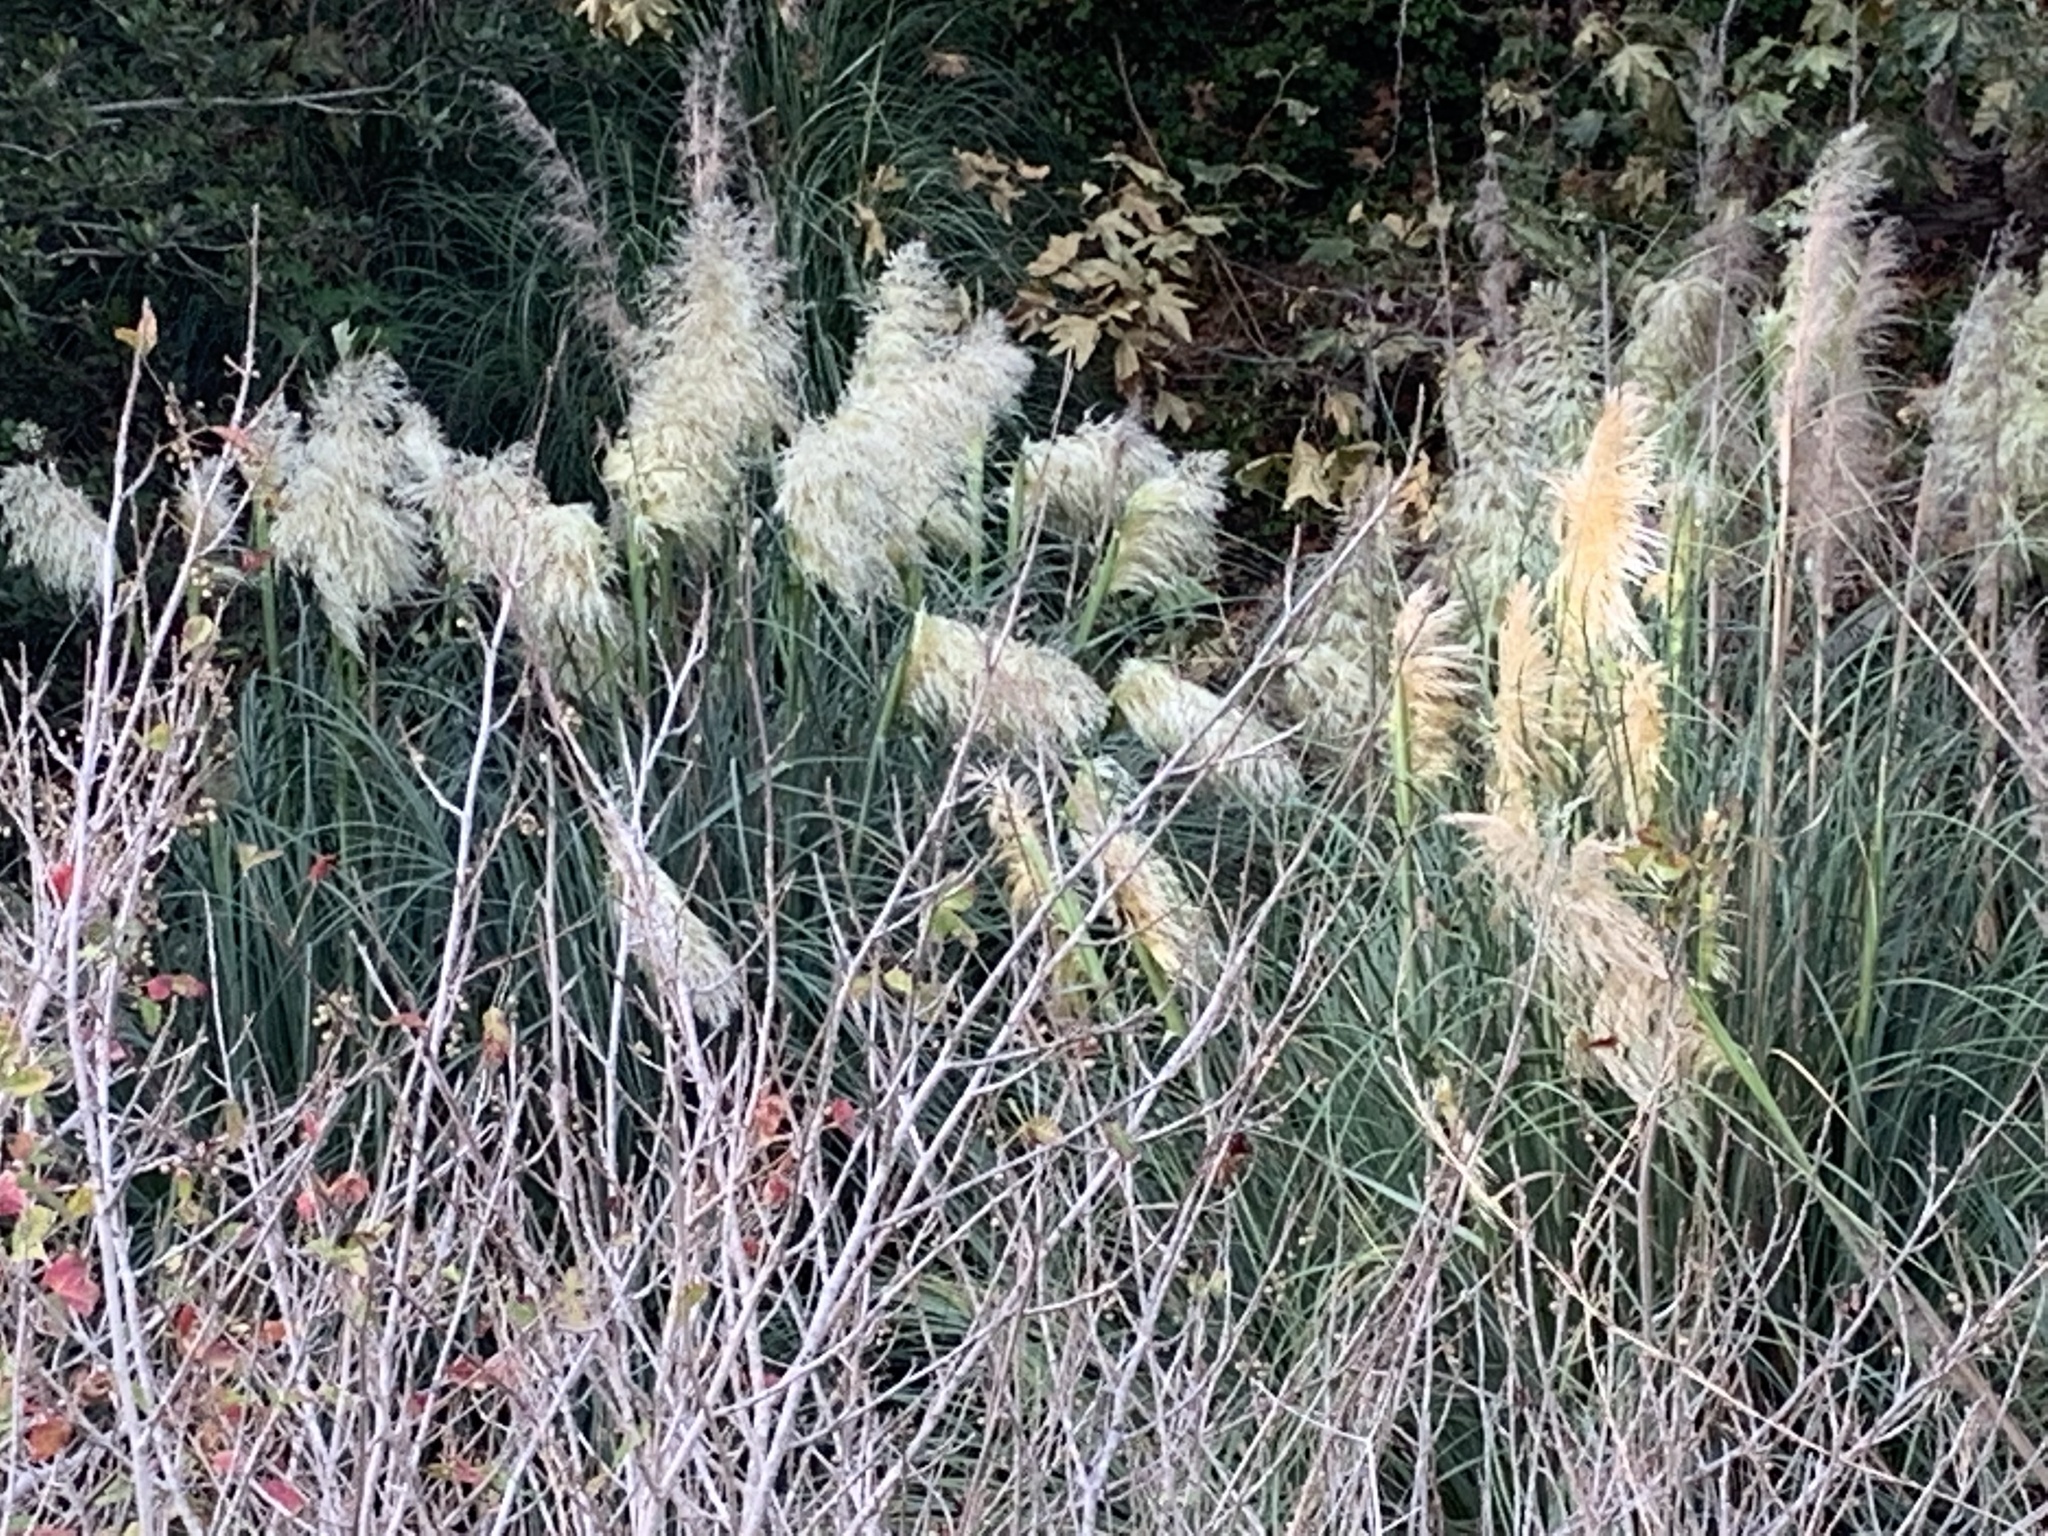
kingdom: Plantae
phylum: Tracheophyta
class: Liliopsida
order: Poales
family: Poaceae
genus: Cortaderia
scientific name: Cortaderia selloana
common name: Uruguayan pampas grass
